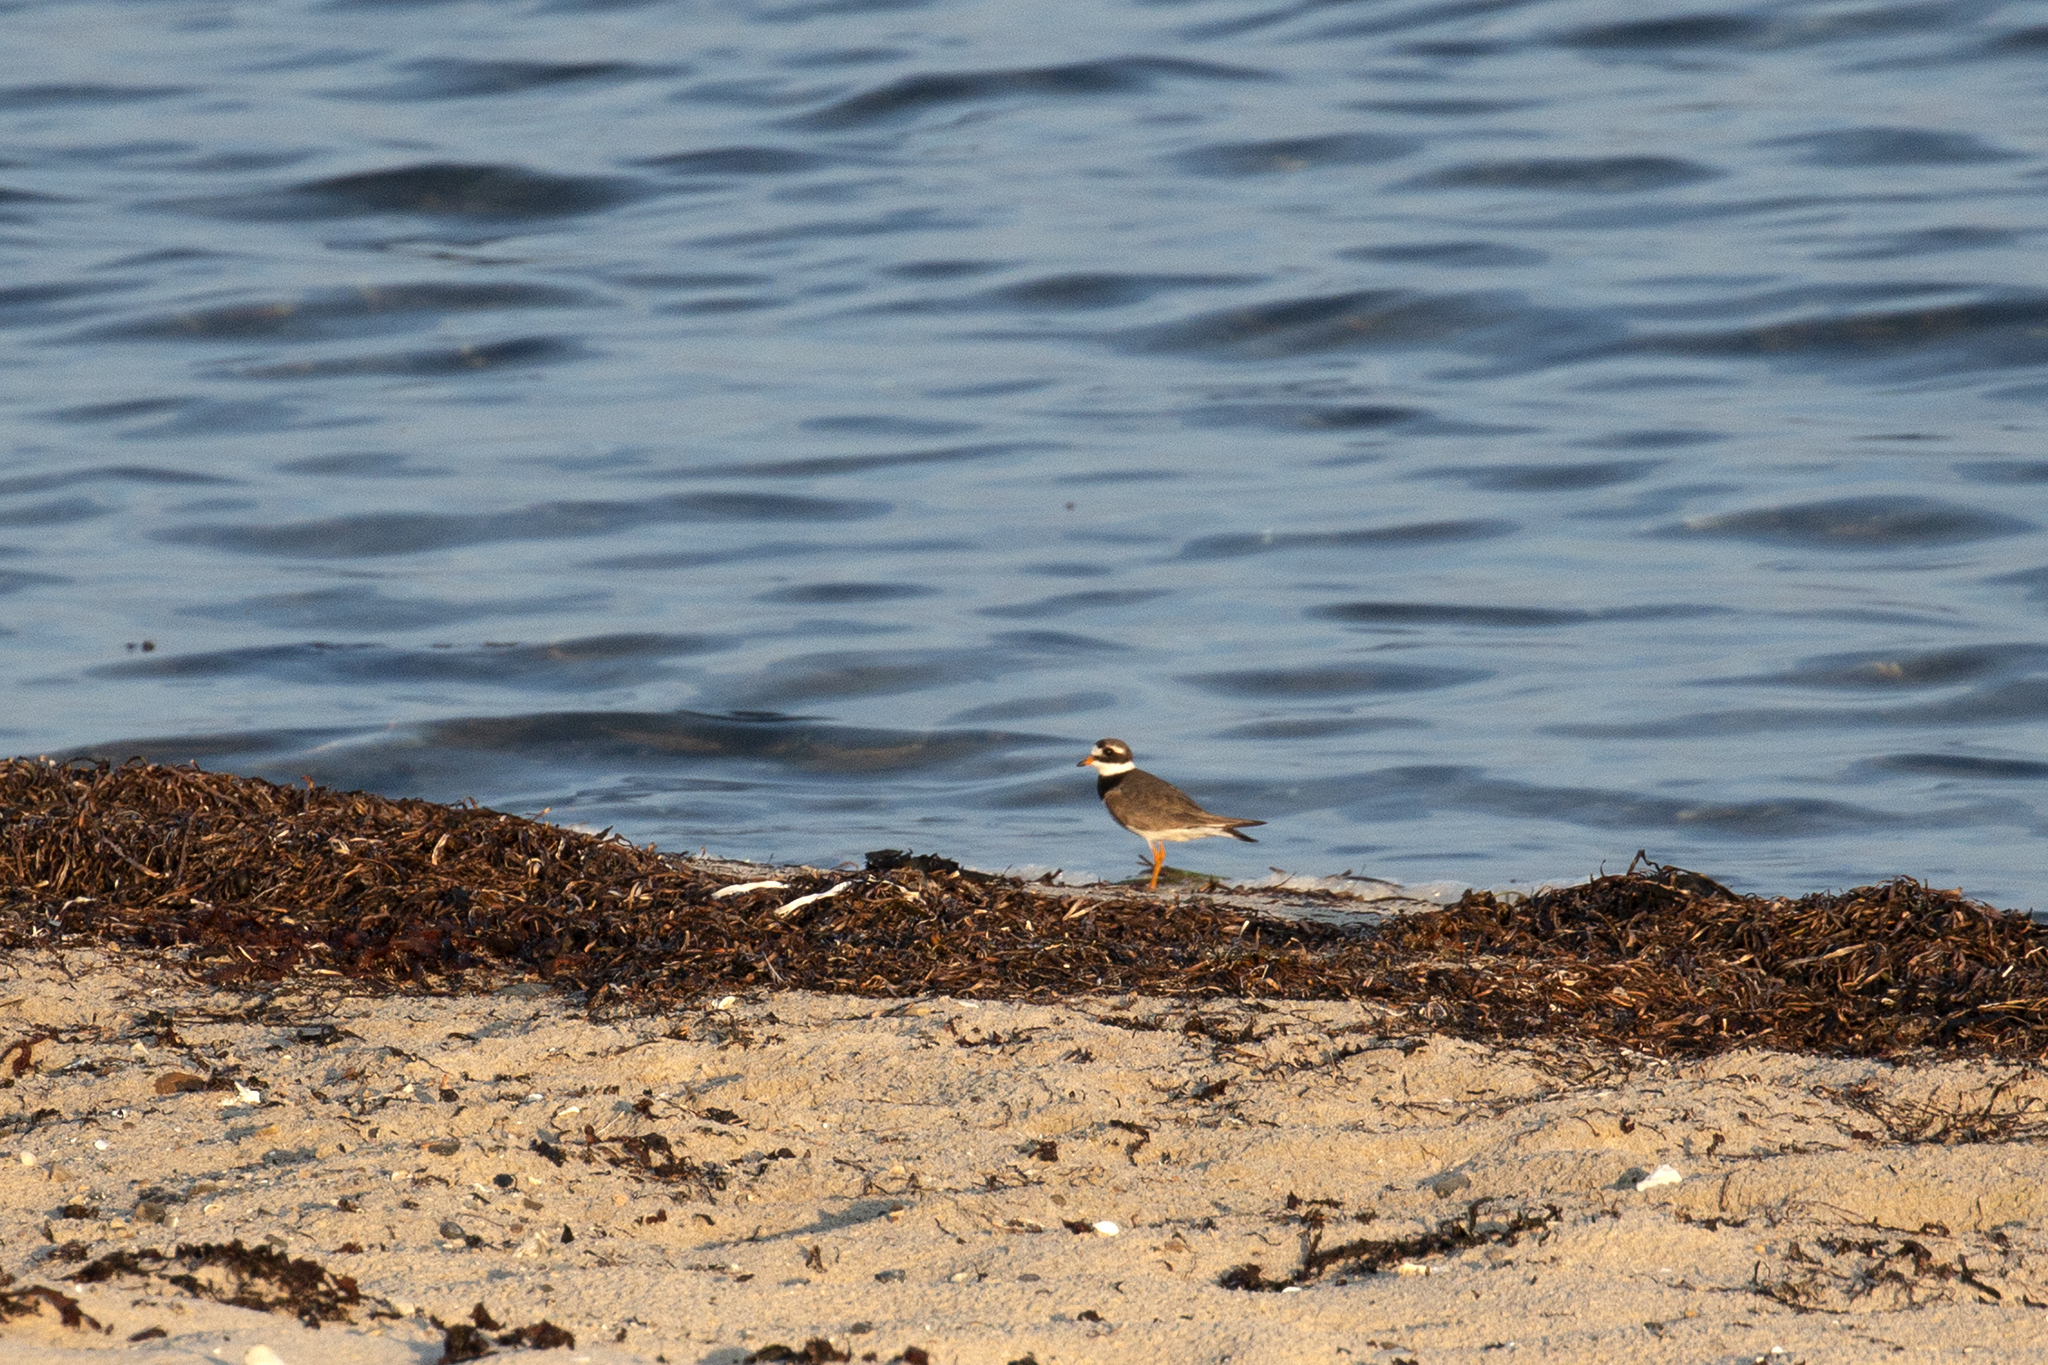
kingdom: Animalia
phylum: Chordata
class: Aves
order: Charadriiformes
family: Charadriidae
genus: Charadrius
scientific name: Charadrius hiaticula
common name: Common ringed plover
